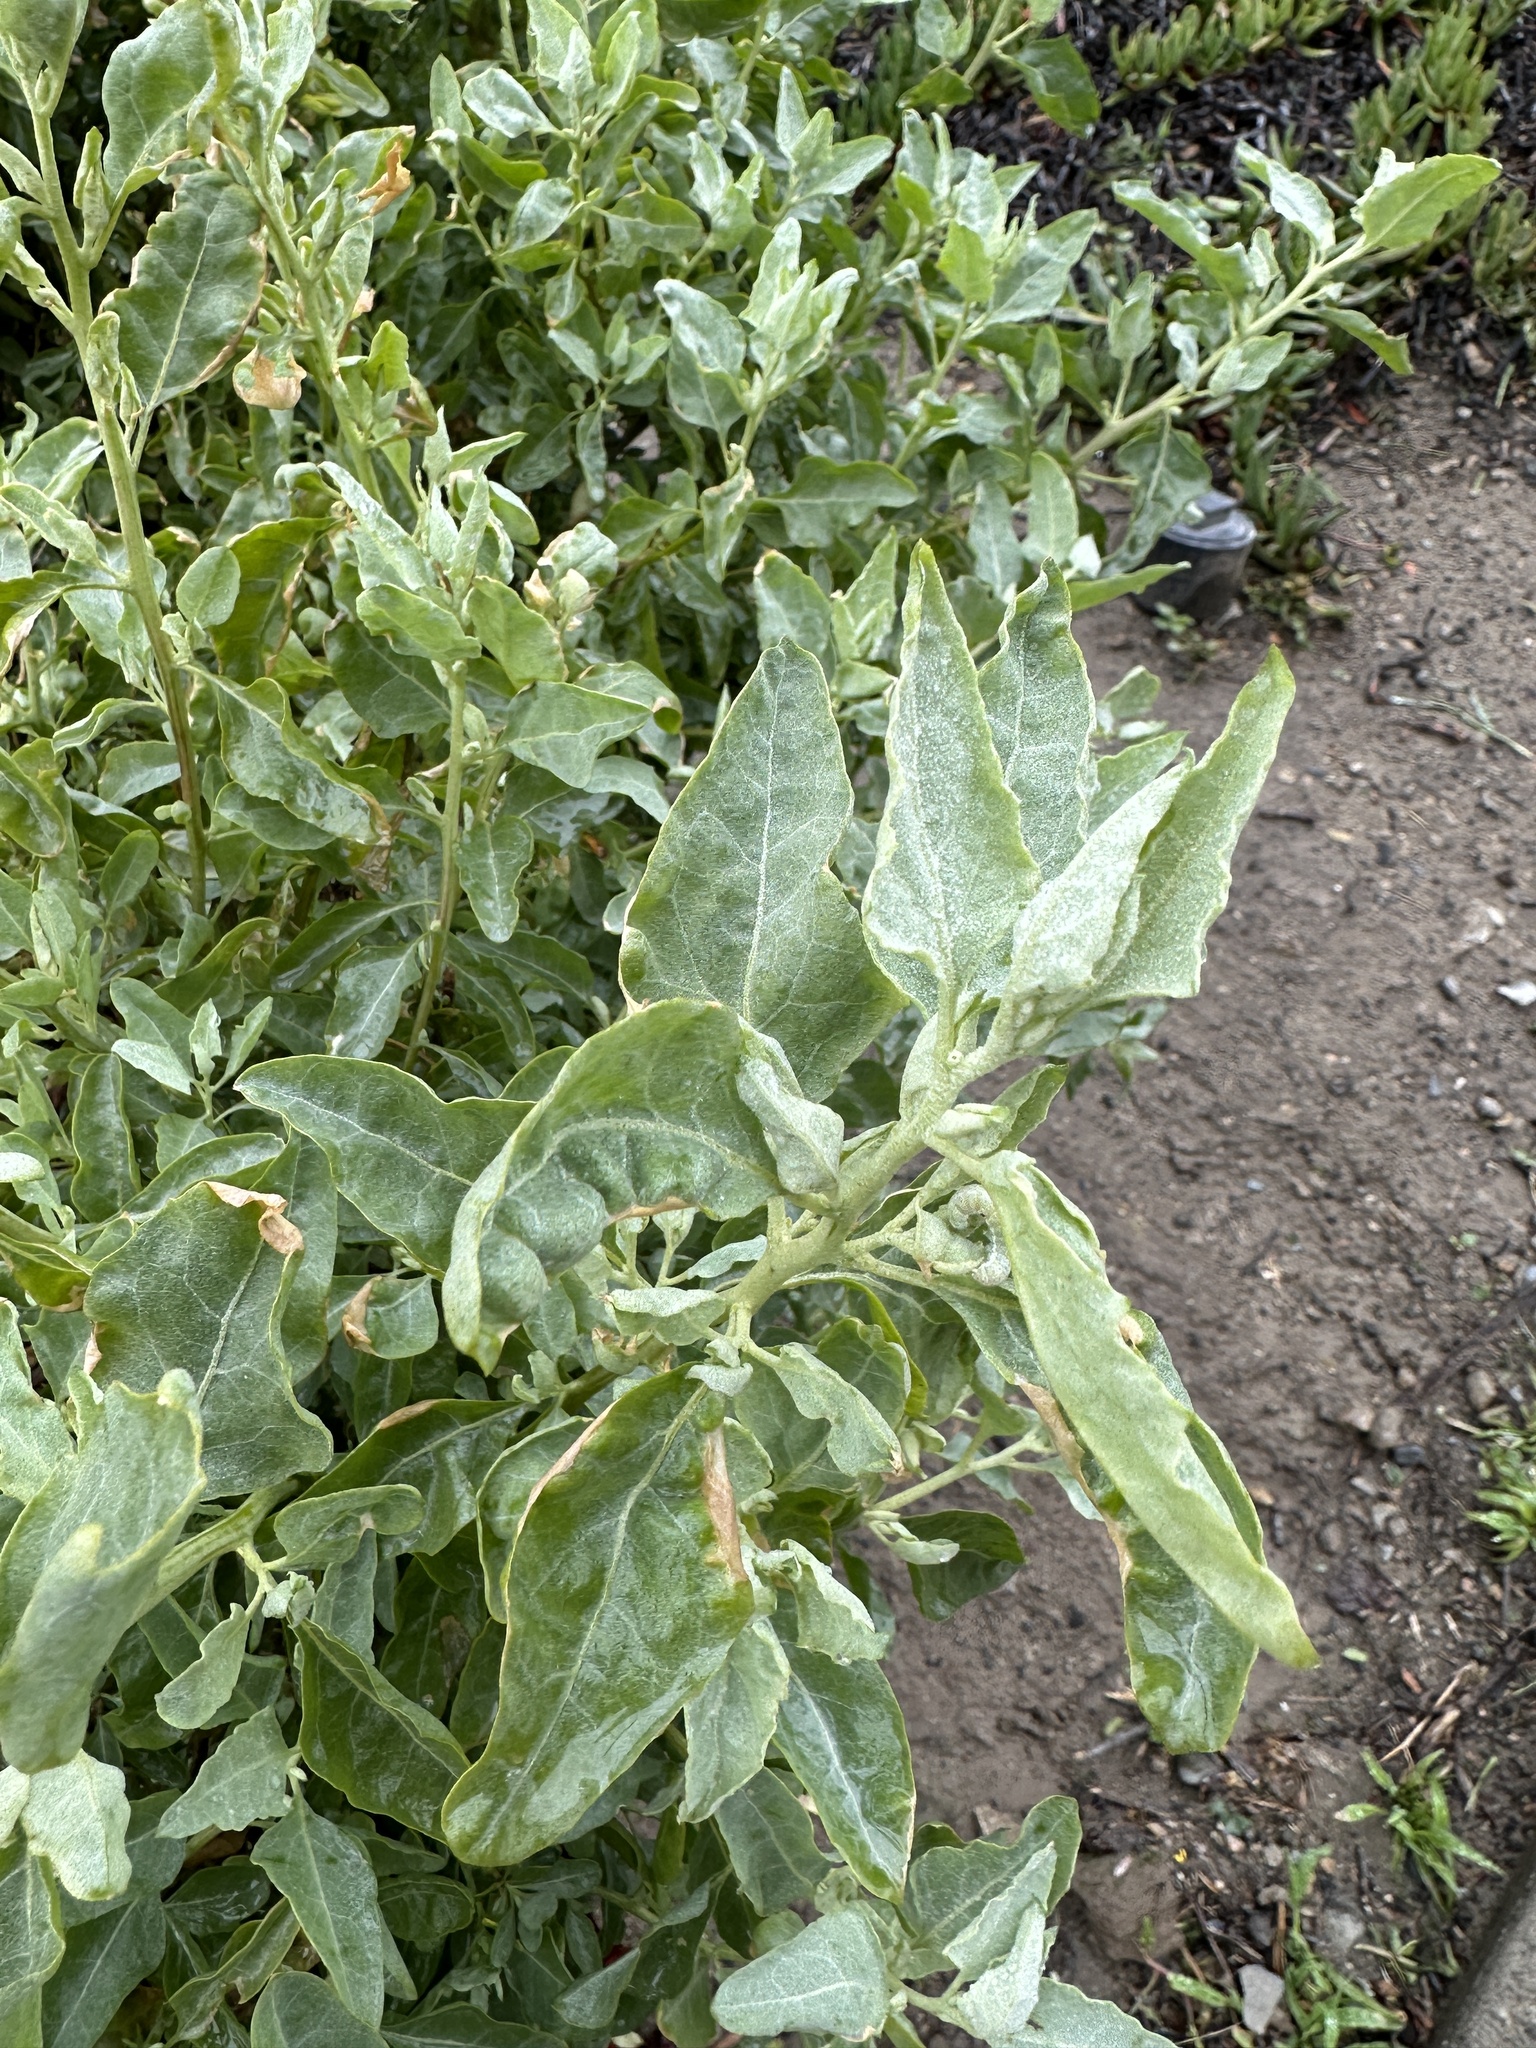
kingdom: Plantae
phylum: Tracheophyta
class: Magnoliopsida
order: Caryophyllales
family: Amaranthaceae
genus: Atriplex
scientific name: Atriplex lentiformis
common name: Big saltbush
